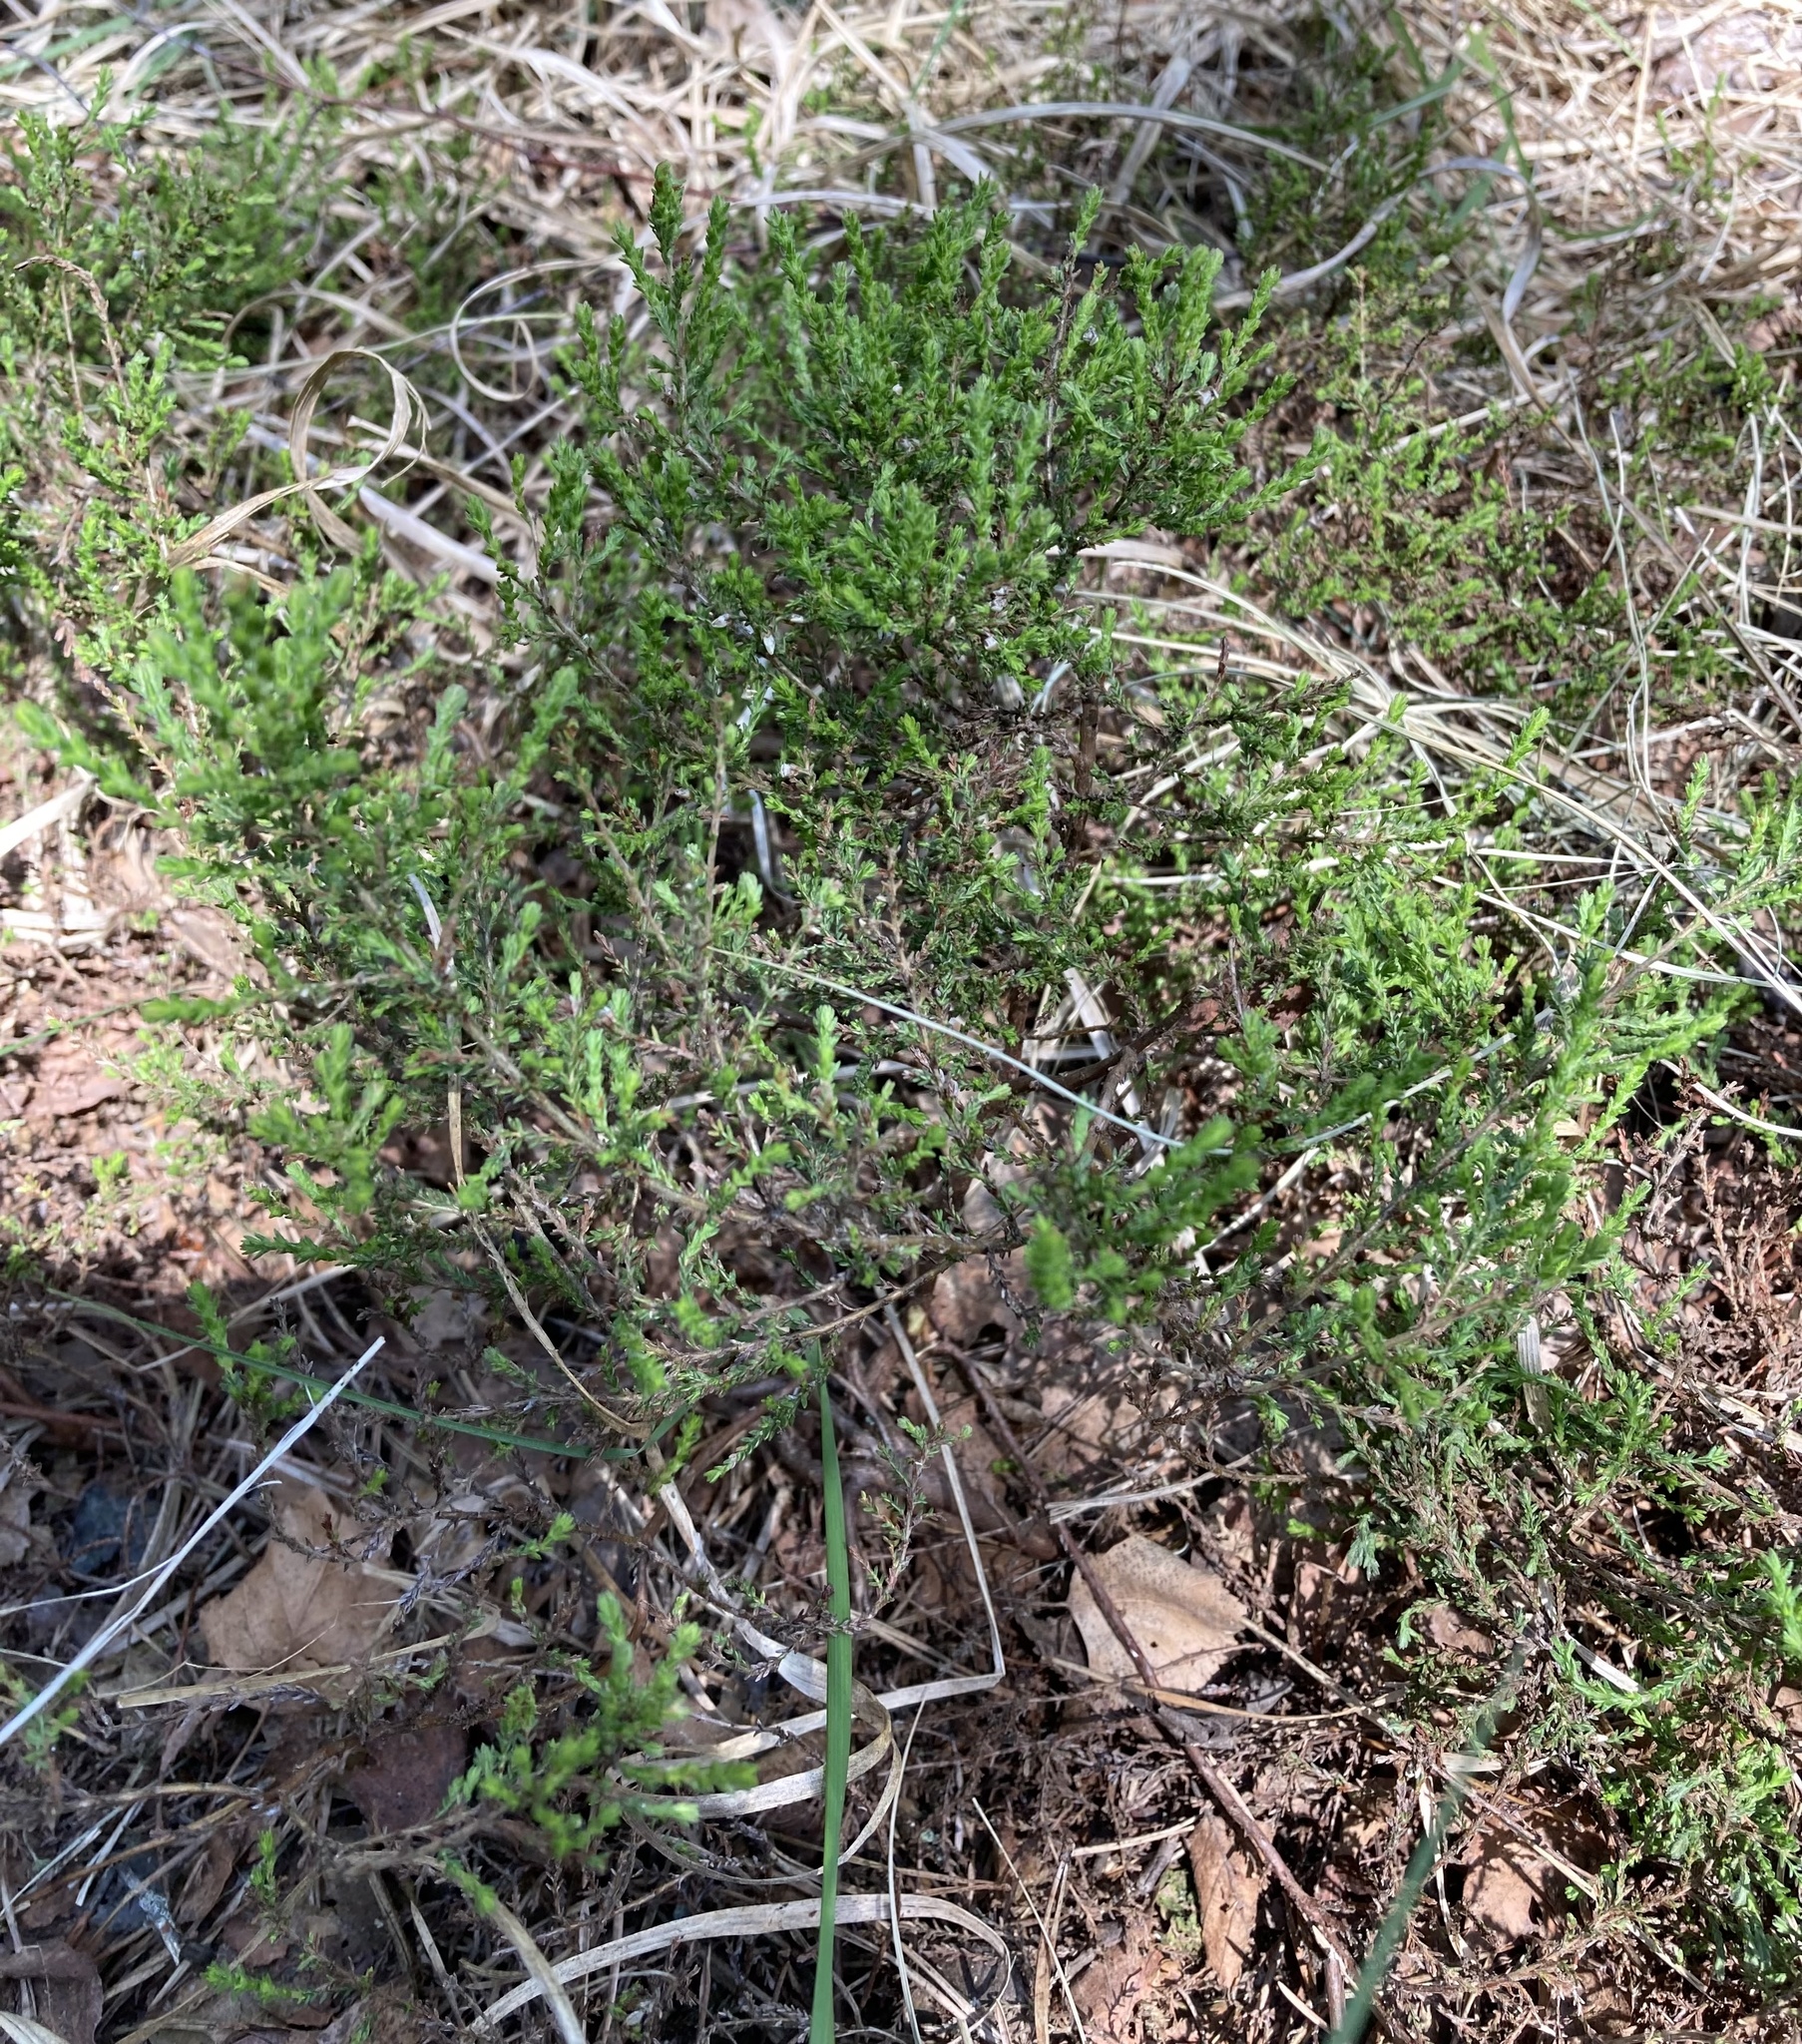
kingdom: Plantae
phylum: Tracheophyta
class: Magnoliopsida
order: Ericales
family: Ericaceae
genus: Calluna
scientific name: Calluna vulgaris
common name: Heather
